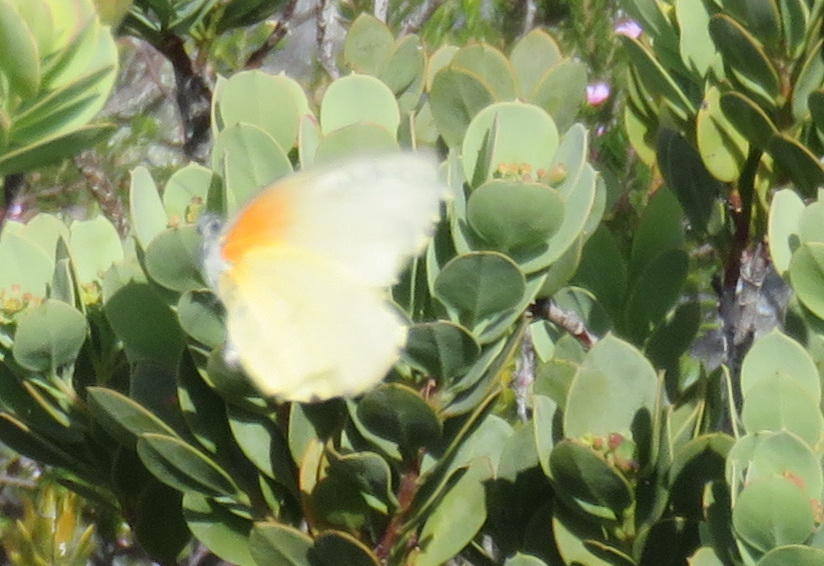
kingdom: Animalia
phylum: Arthropoda
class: Insecta
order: Lepidoptera
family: Pieridae
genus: Mylothris
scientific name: Mylothris agathina
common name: Eastern dotted border
